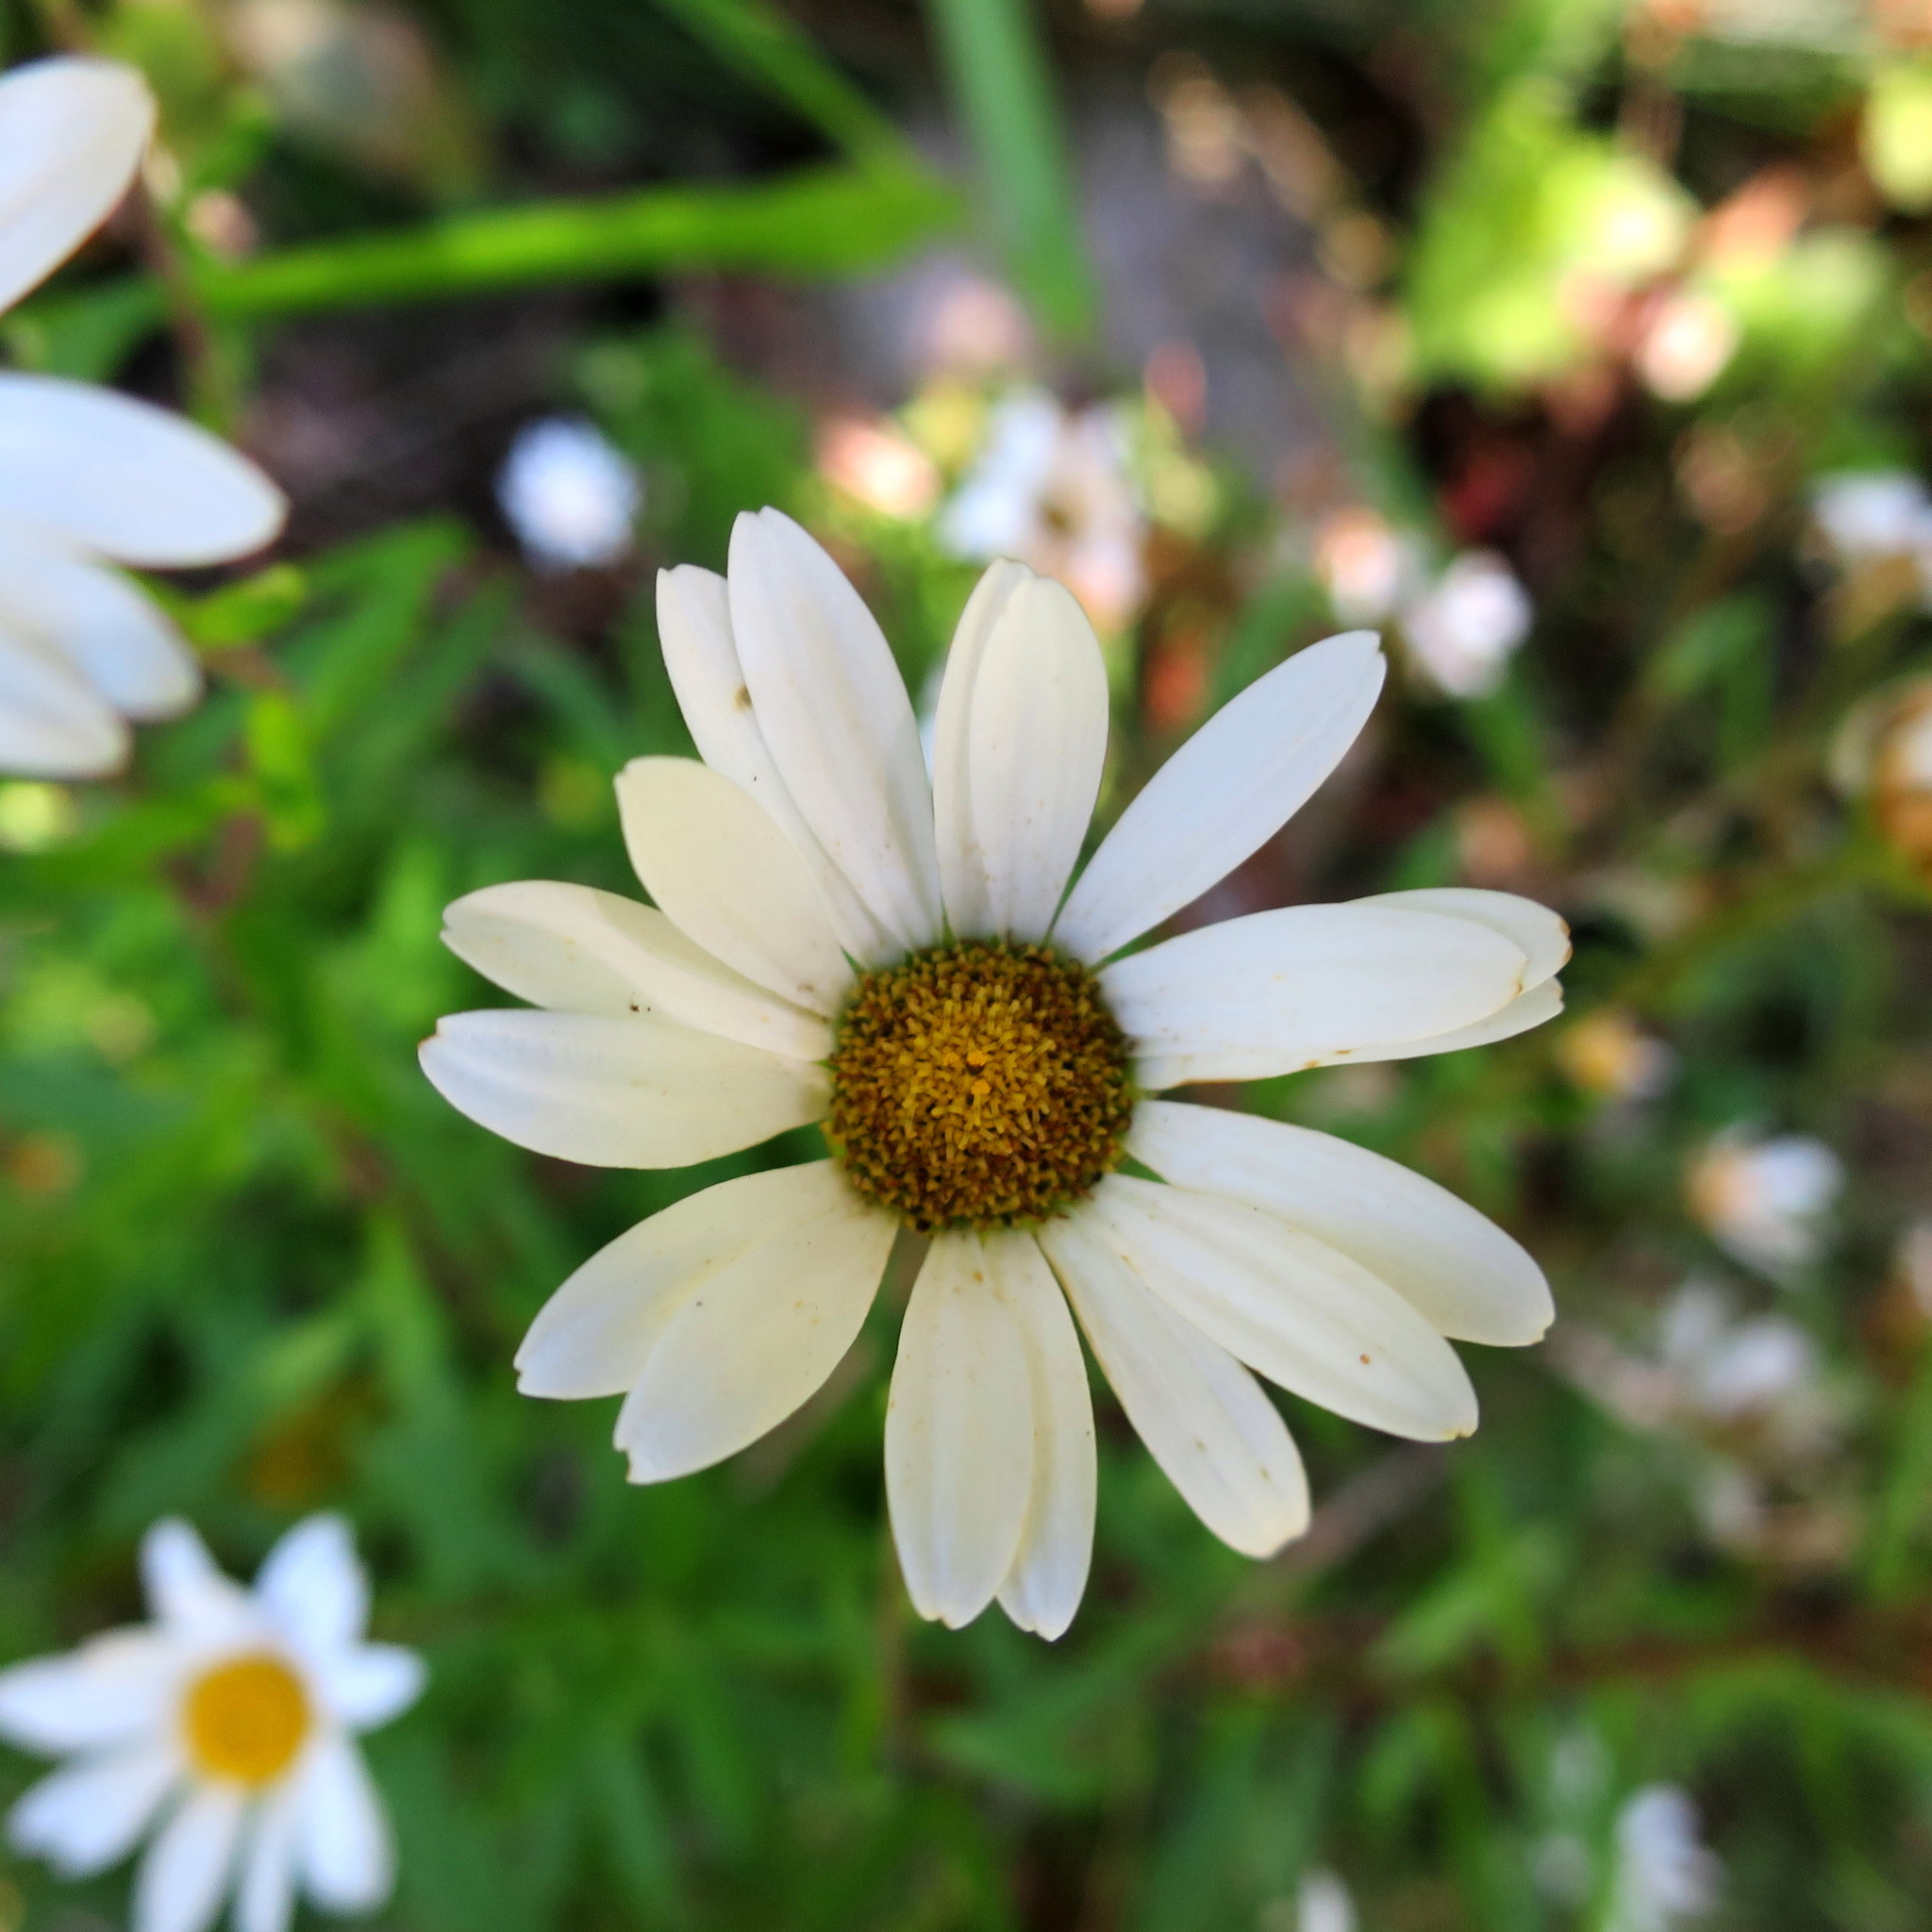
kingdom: Plantae
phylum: Tracheophyta
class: Magnoliopsida
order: Asterales
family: Asteraceae
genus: Osmitopsis
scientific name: Osmitopsis osmitoides
